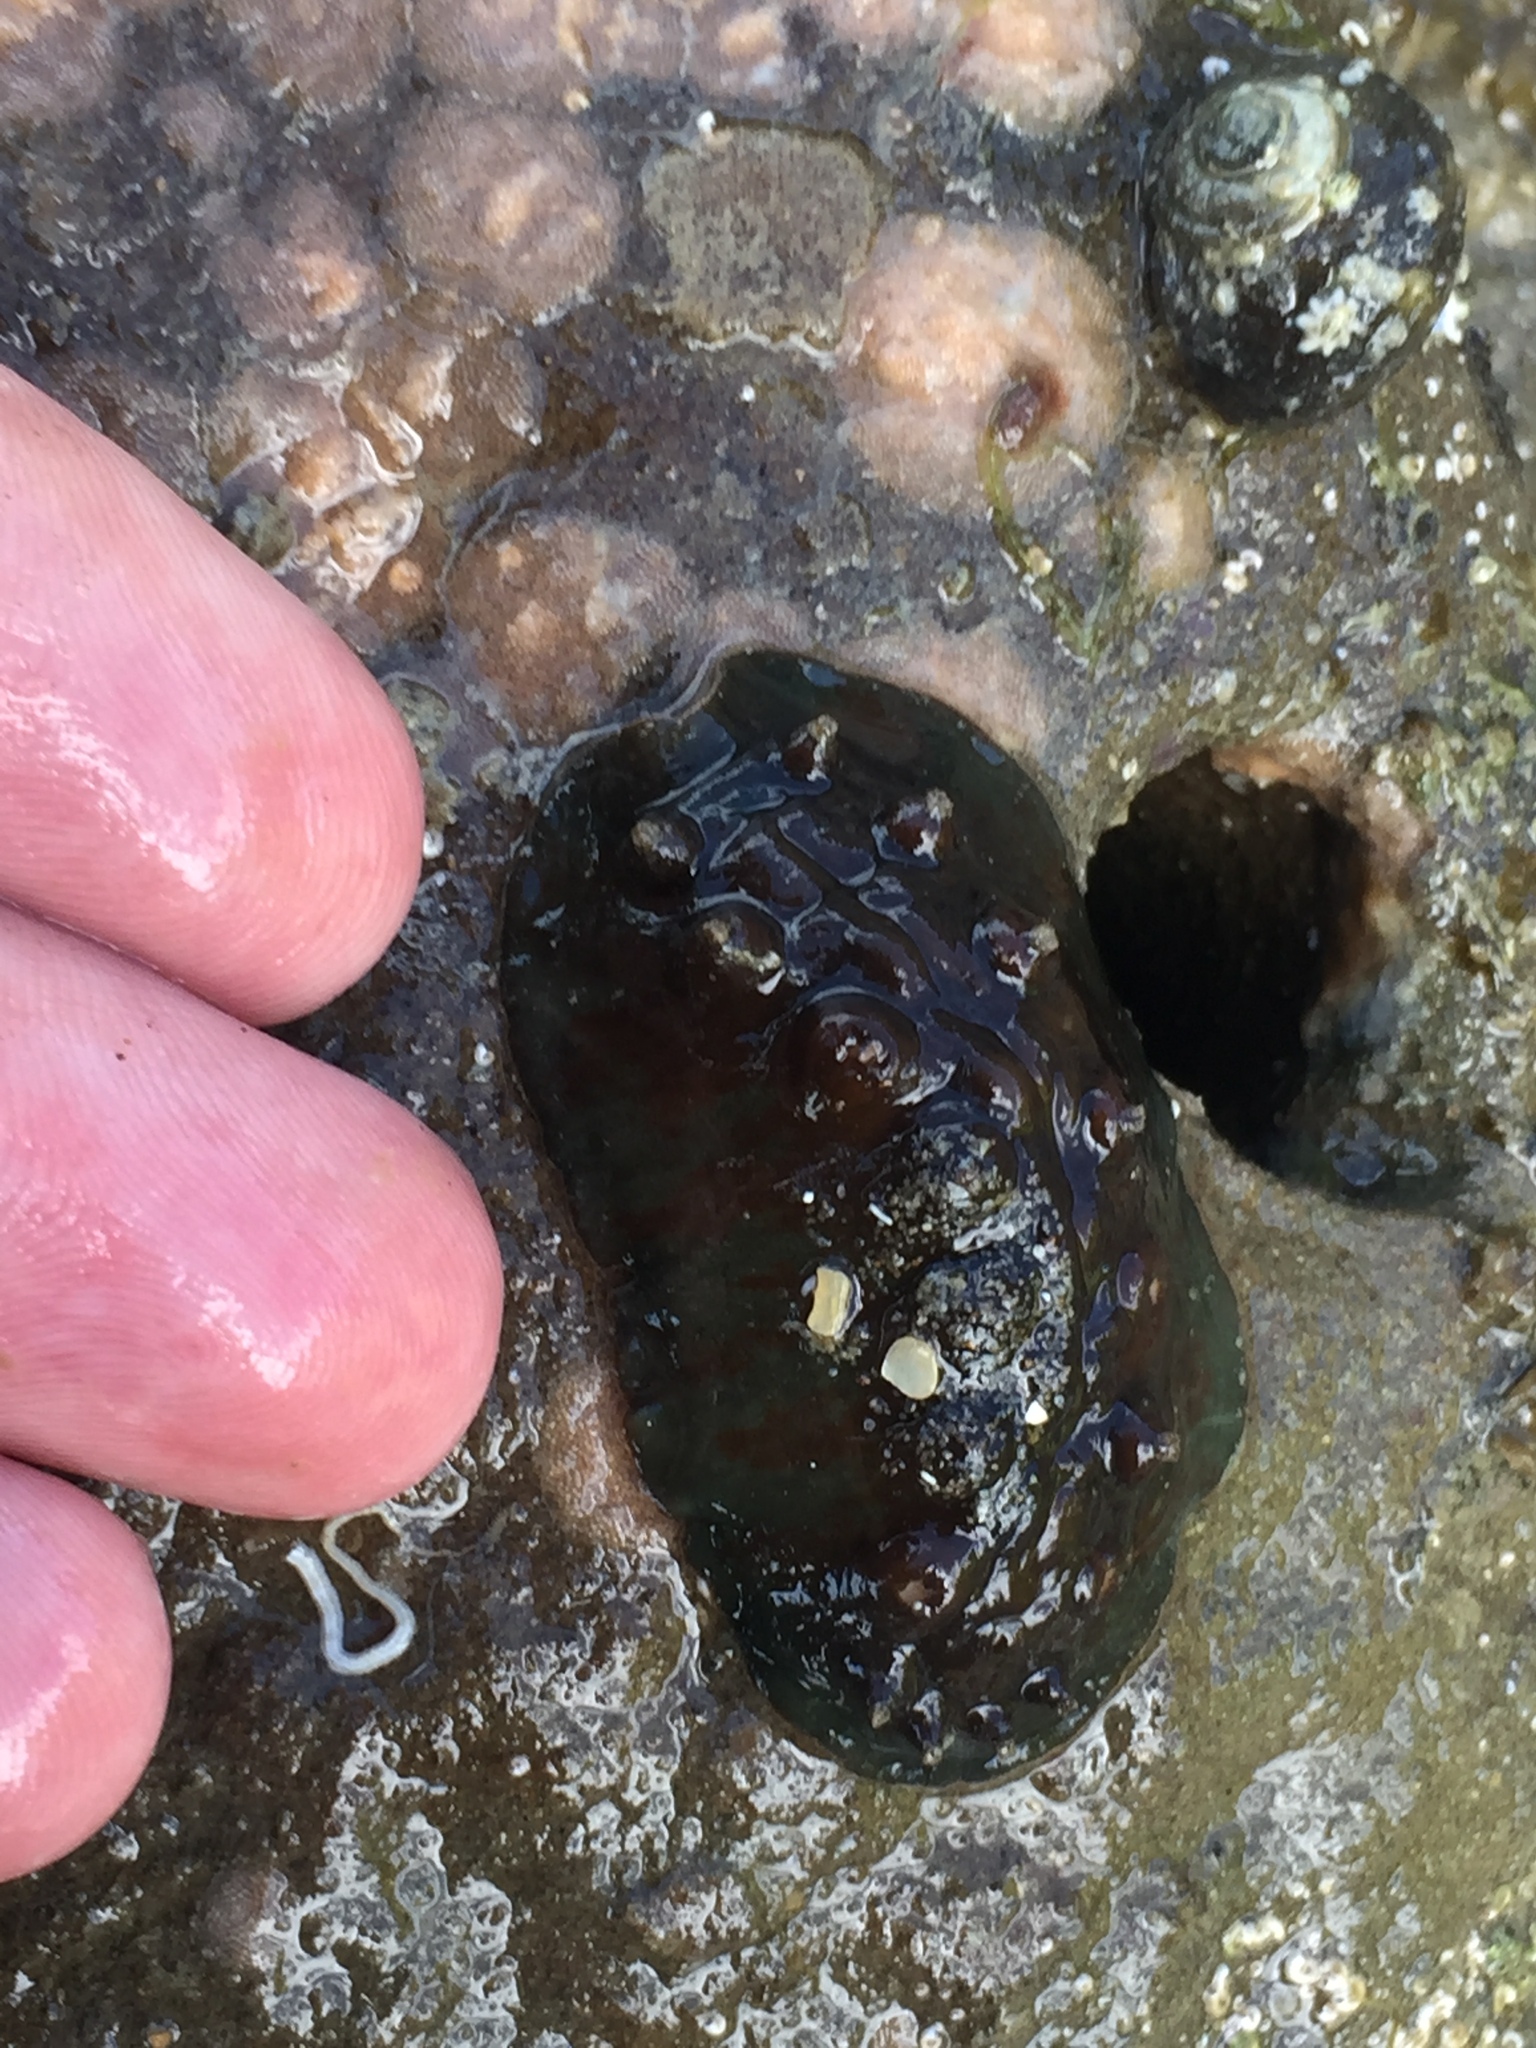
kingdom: Animalia
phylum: Mollusca
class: Polyplacophora
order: Chitonida
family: Acanthochitonidae
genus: Cryptoconchus
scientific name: Cryptoconchus porosus
